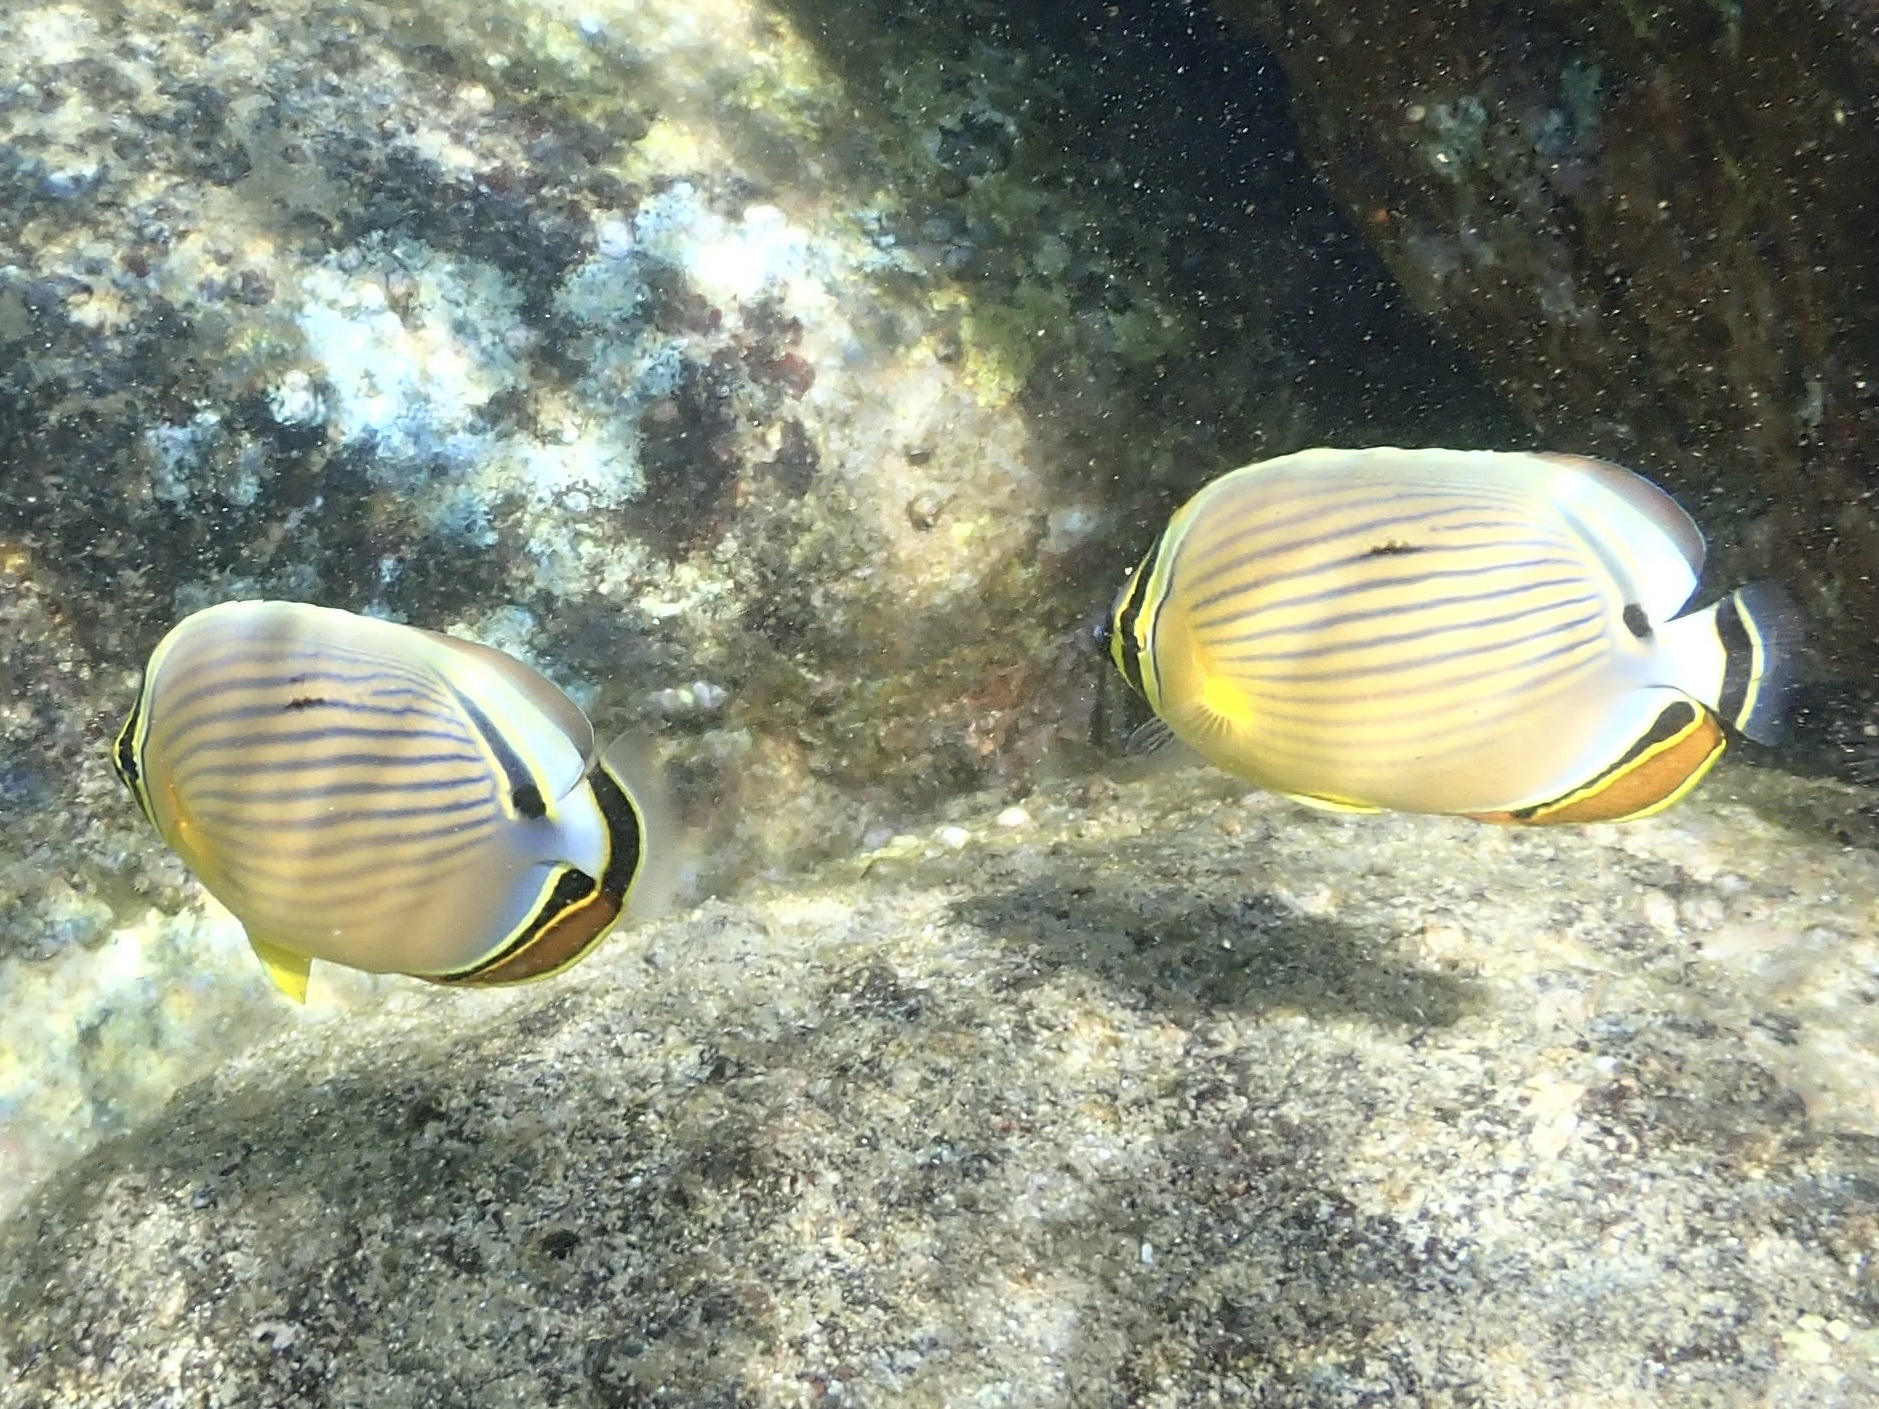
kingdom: Animalia
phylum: Chordata
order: Perciformes
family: Chaetodontidae
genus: Chaetodon
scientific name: Chaetodon lunulatus
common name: Redfin butterflyfish
